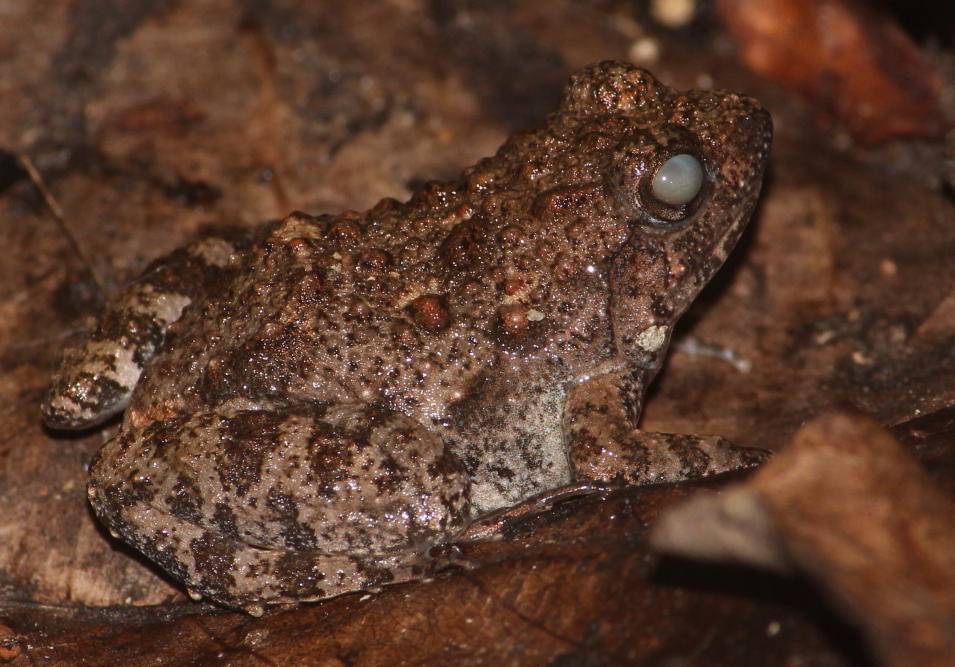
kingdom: Animalia
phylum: Chordata
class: Amphibia
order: Anura
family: Phrynobatrachidae
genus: Phrynobatrachus
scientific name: Phrynobatrachus natalensis
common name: Snoring puddle frog
